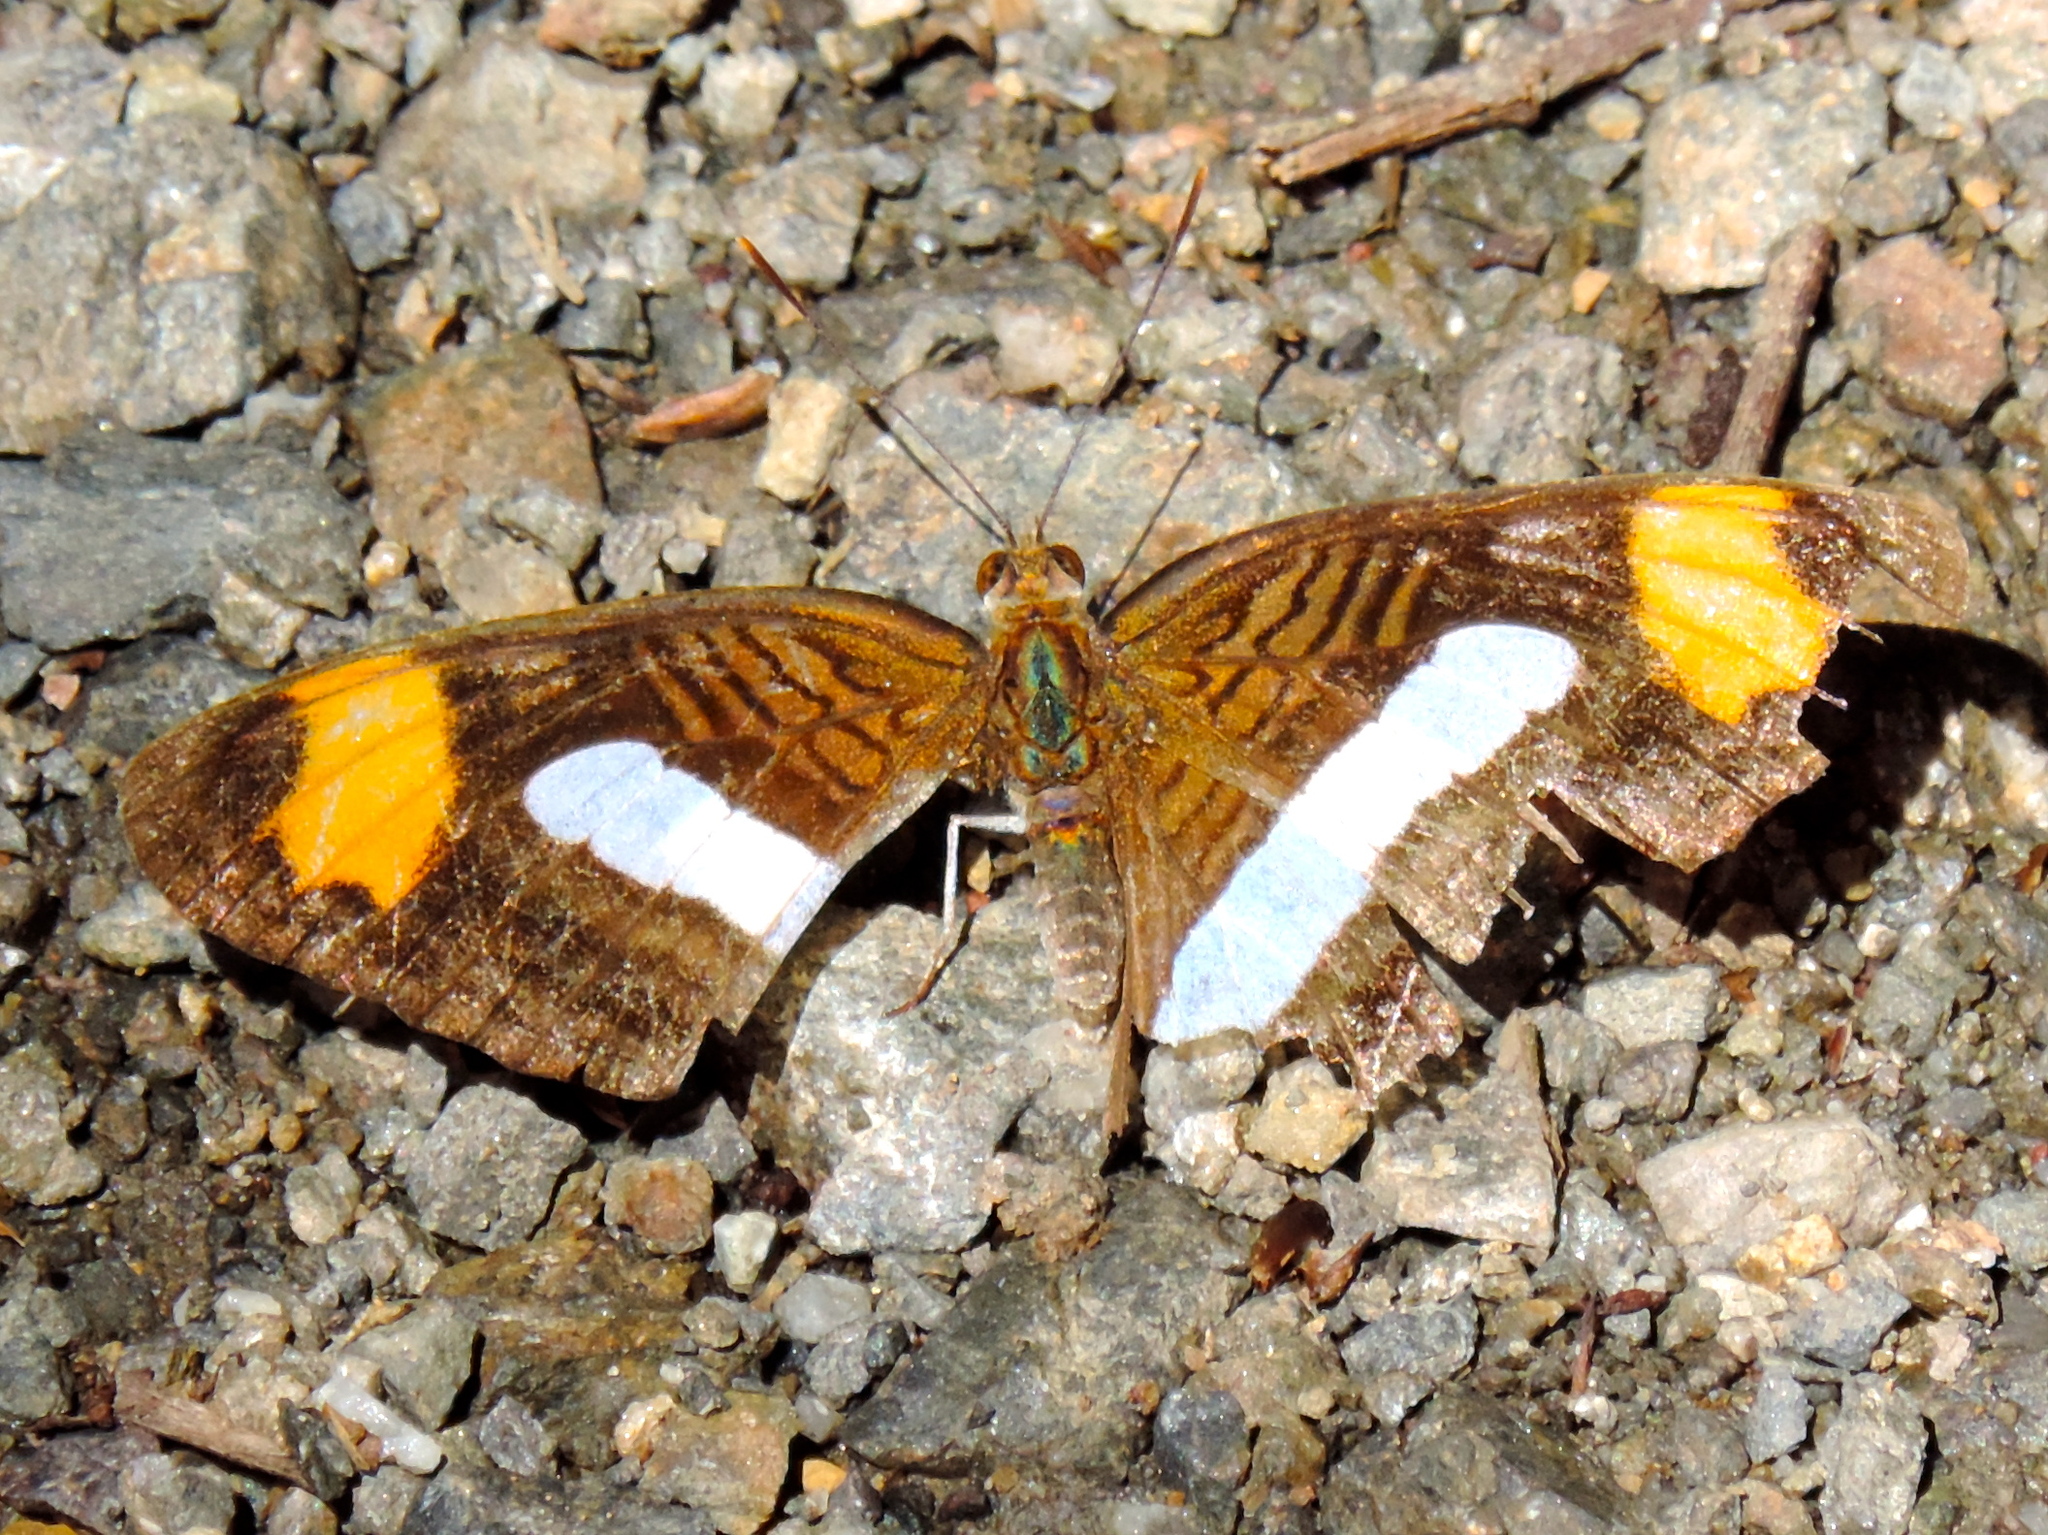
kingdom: Animalia
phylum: Arthropoda
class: Insecta
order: Lepidoptera
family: Nymphalidae
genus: Limenitis
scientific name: Limenitis iphiclus
